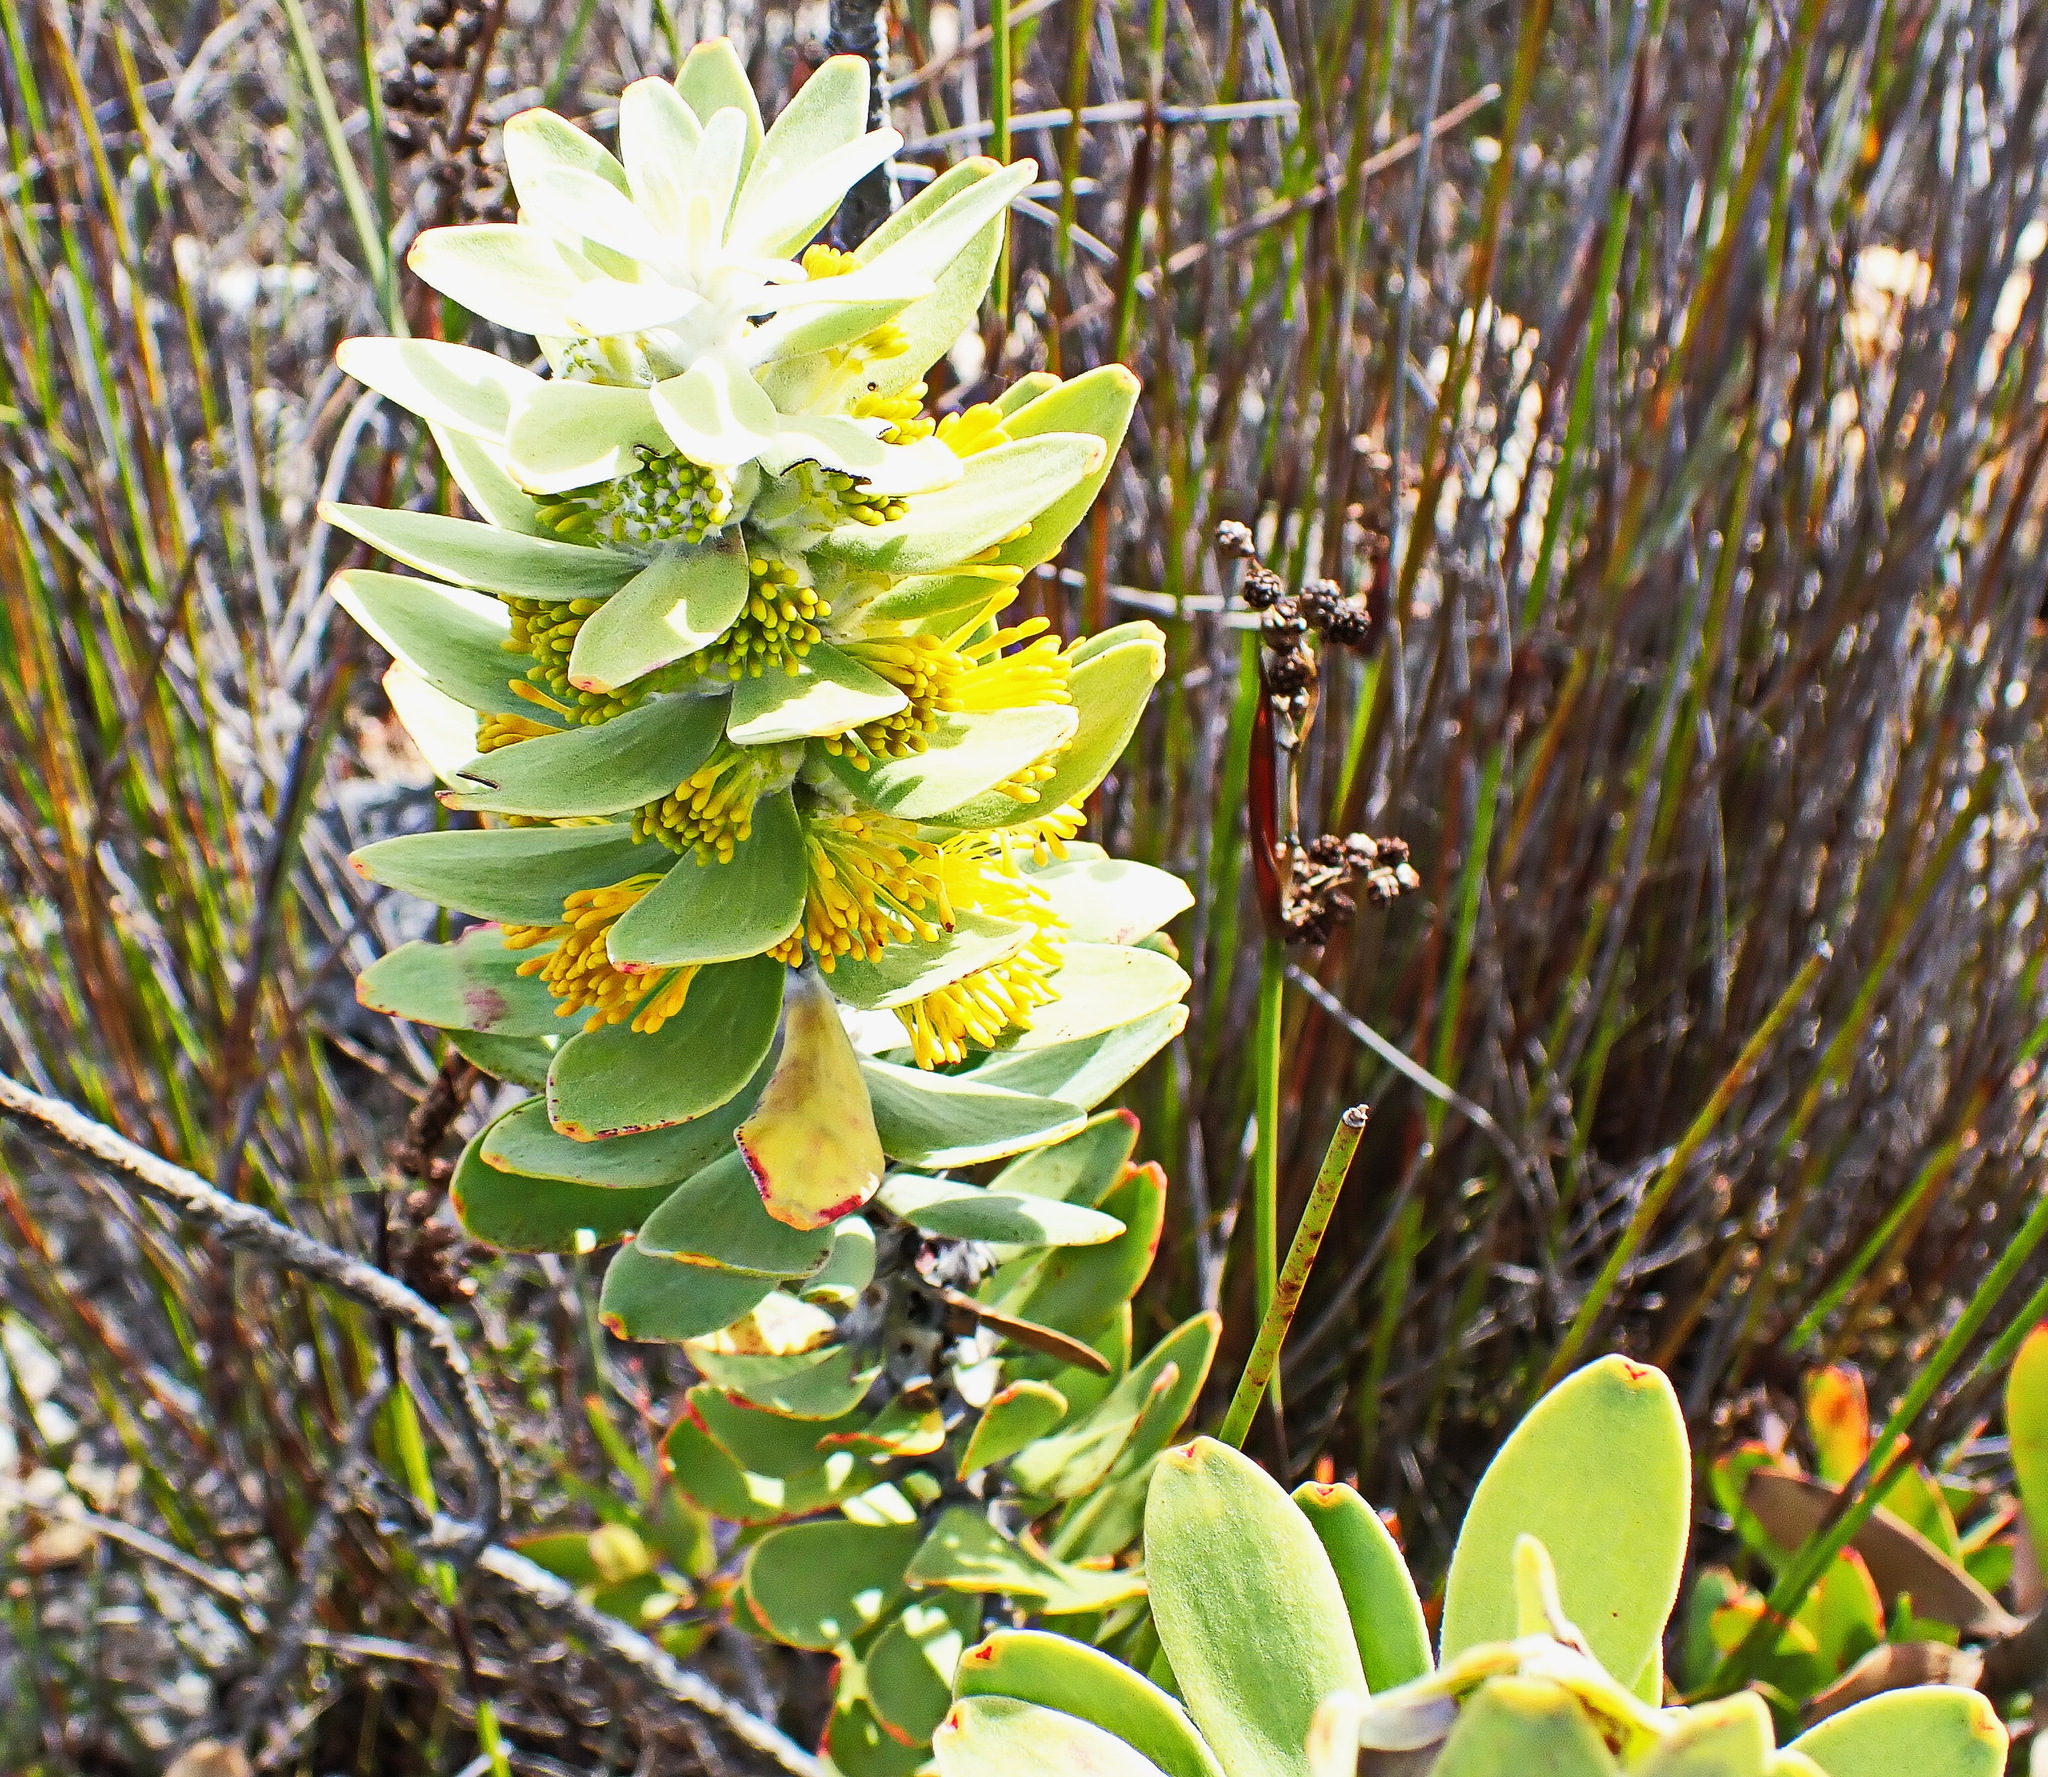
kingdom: Plantae
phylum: Tracheophyta
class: Magnoliopsida
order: Proteales
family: Proteaceae
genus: Mimetes
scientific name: Mimetes chrysanthus
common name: Golden pagoda
